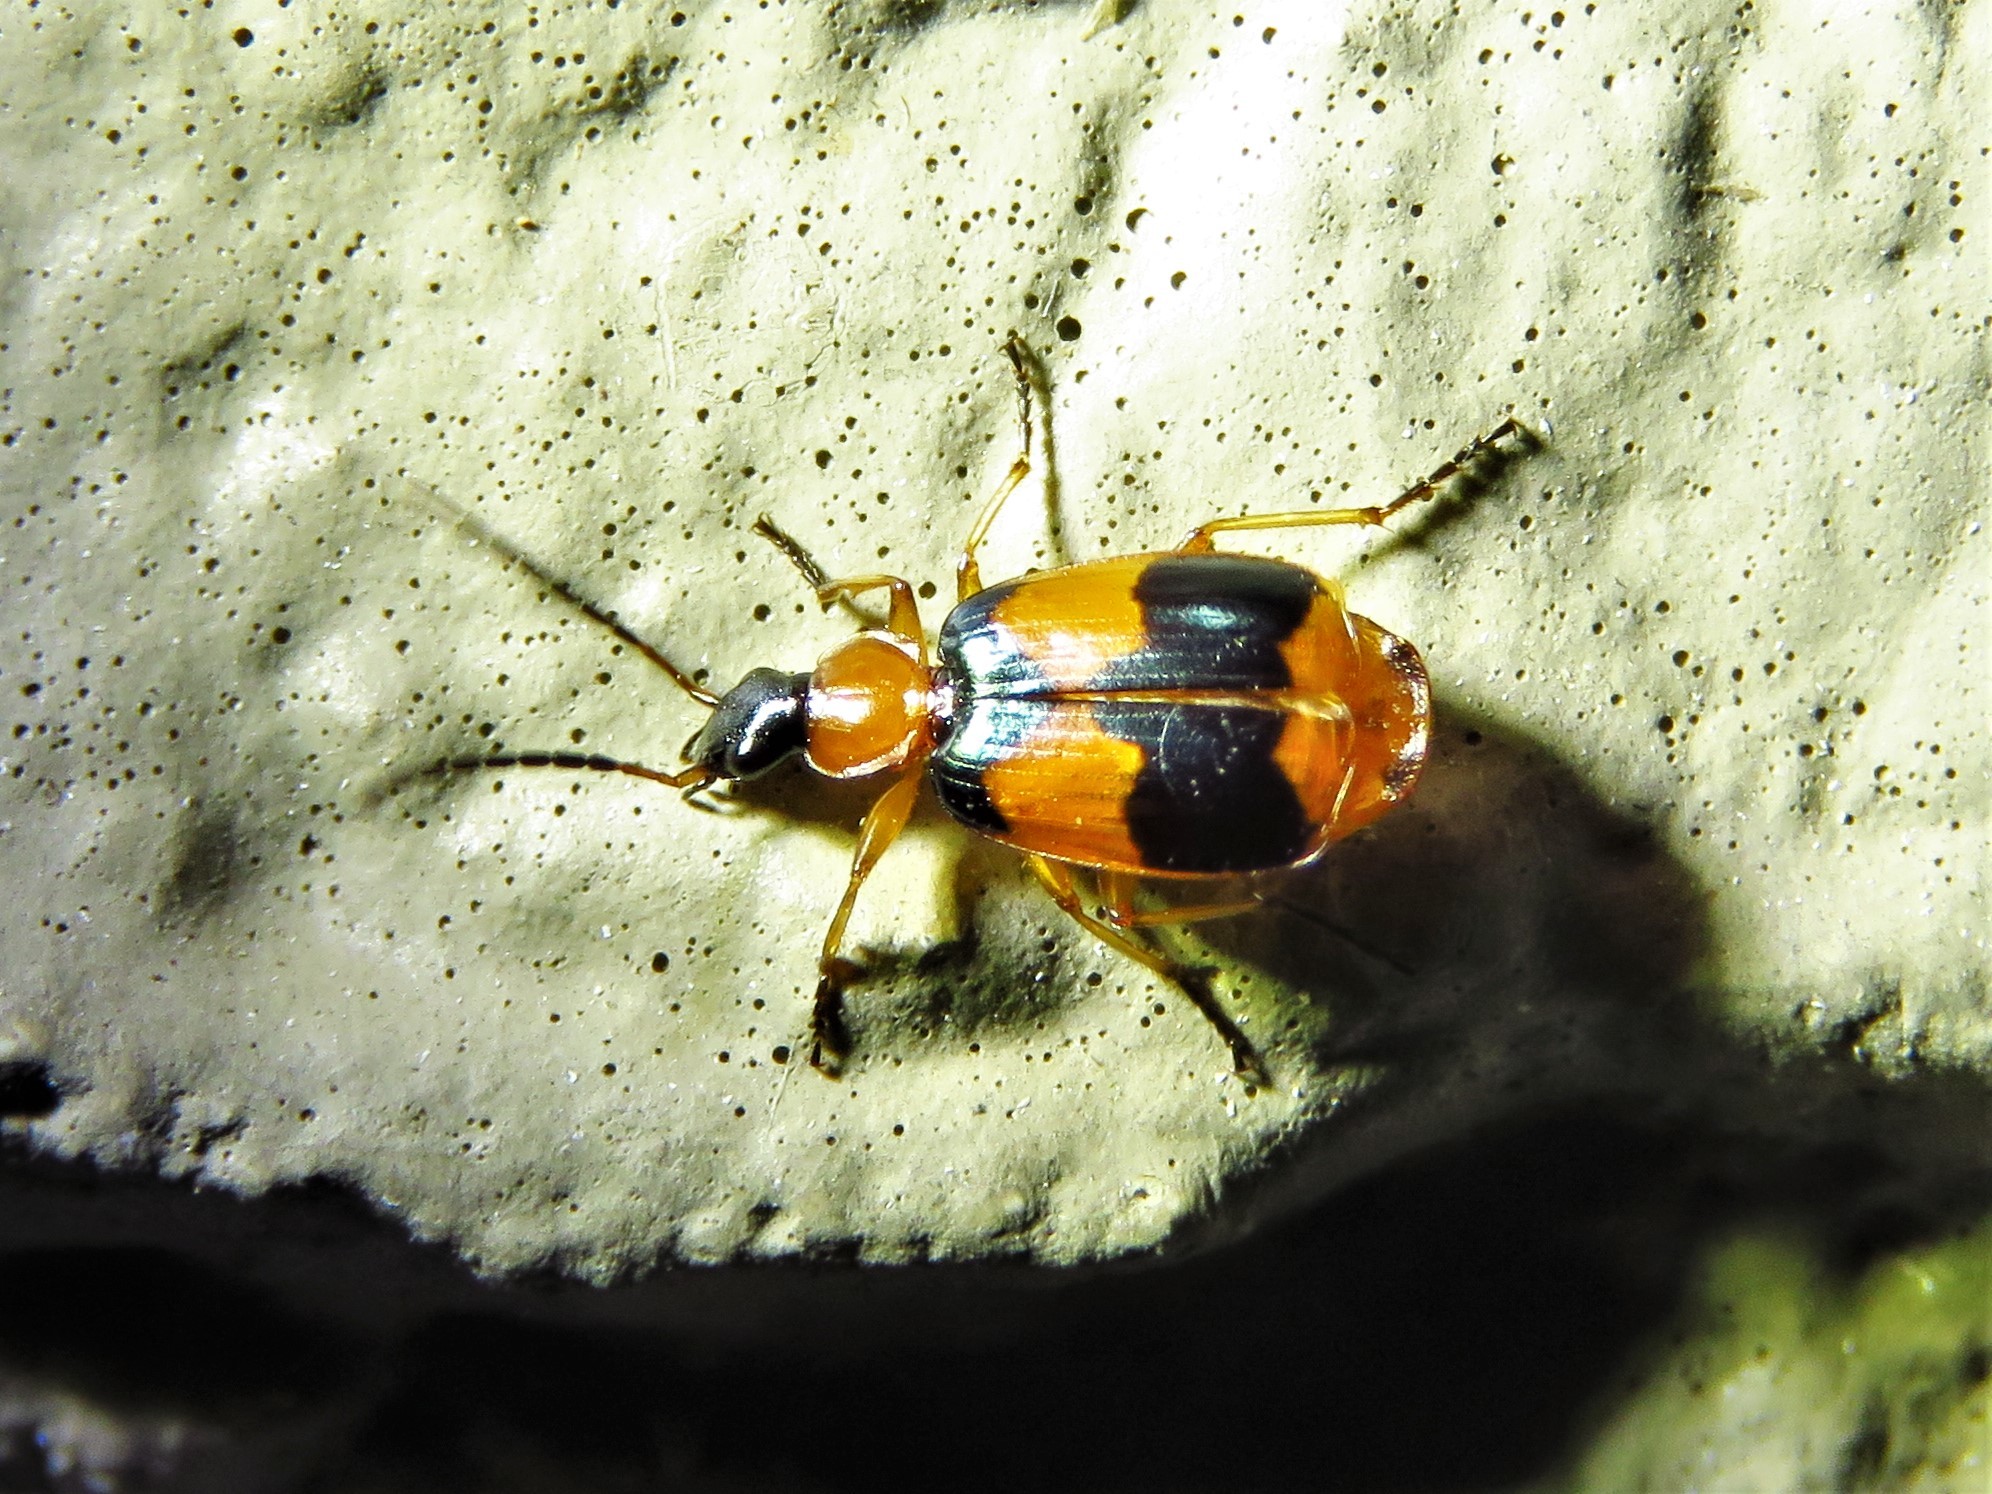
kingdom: Animalia
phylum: Arthropoda
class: Insecta
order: Coleoptera
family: Carabidae
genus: Lebia
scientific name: Lebia pulchella
